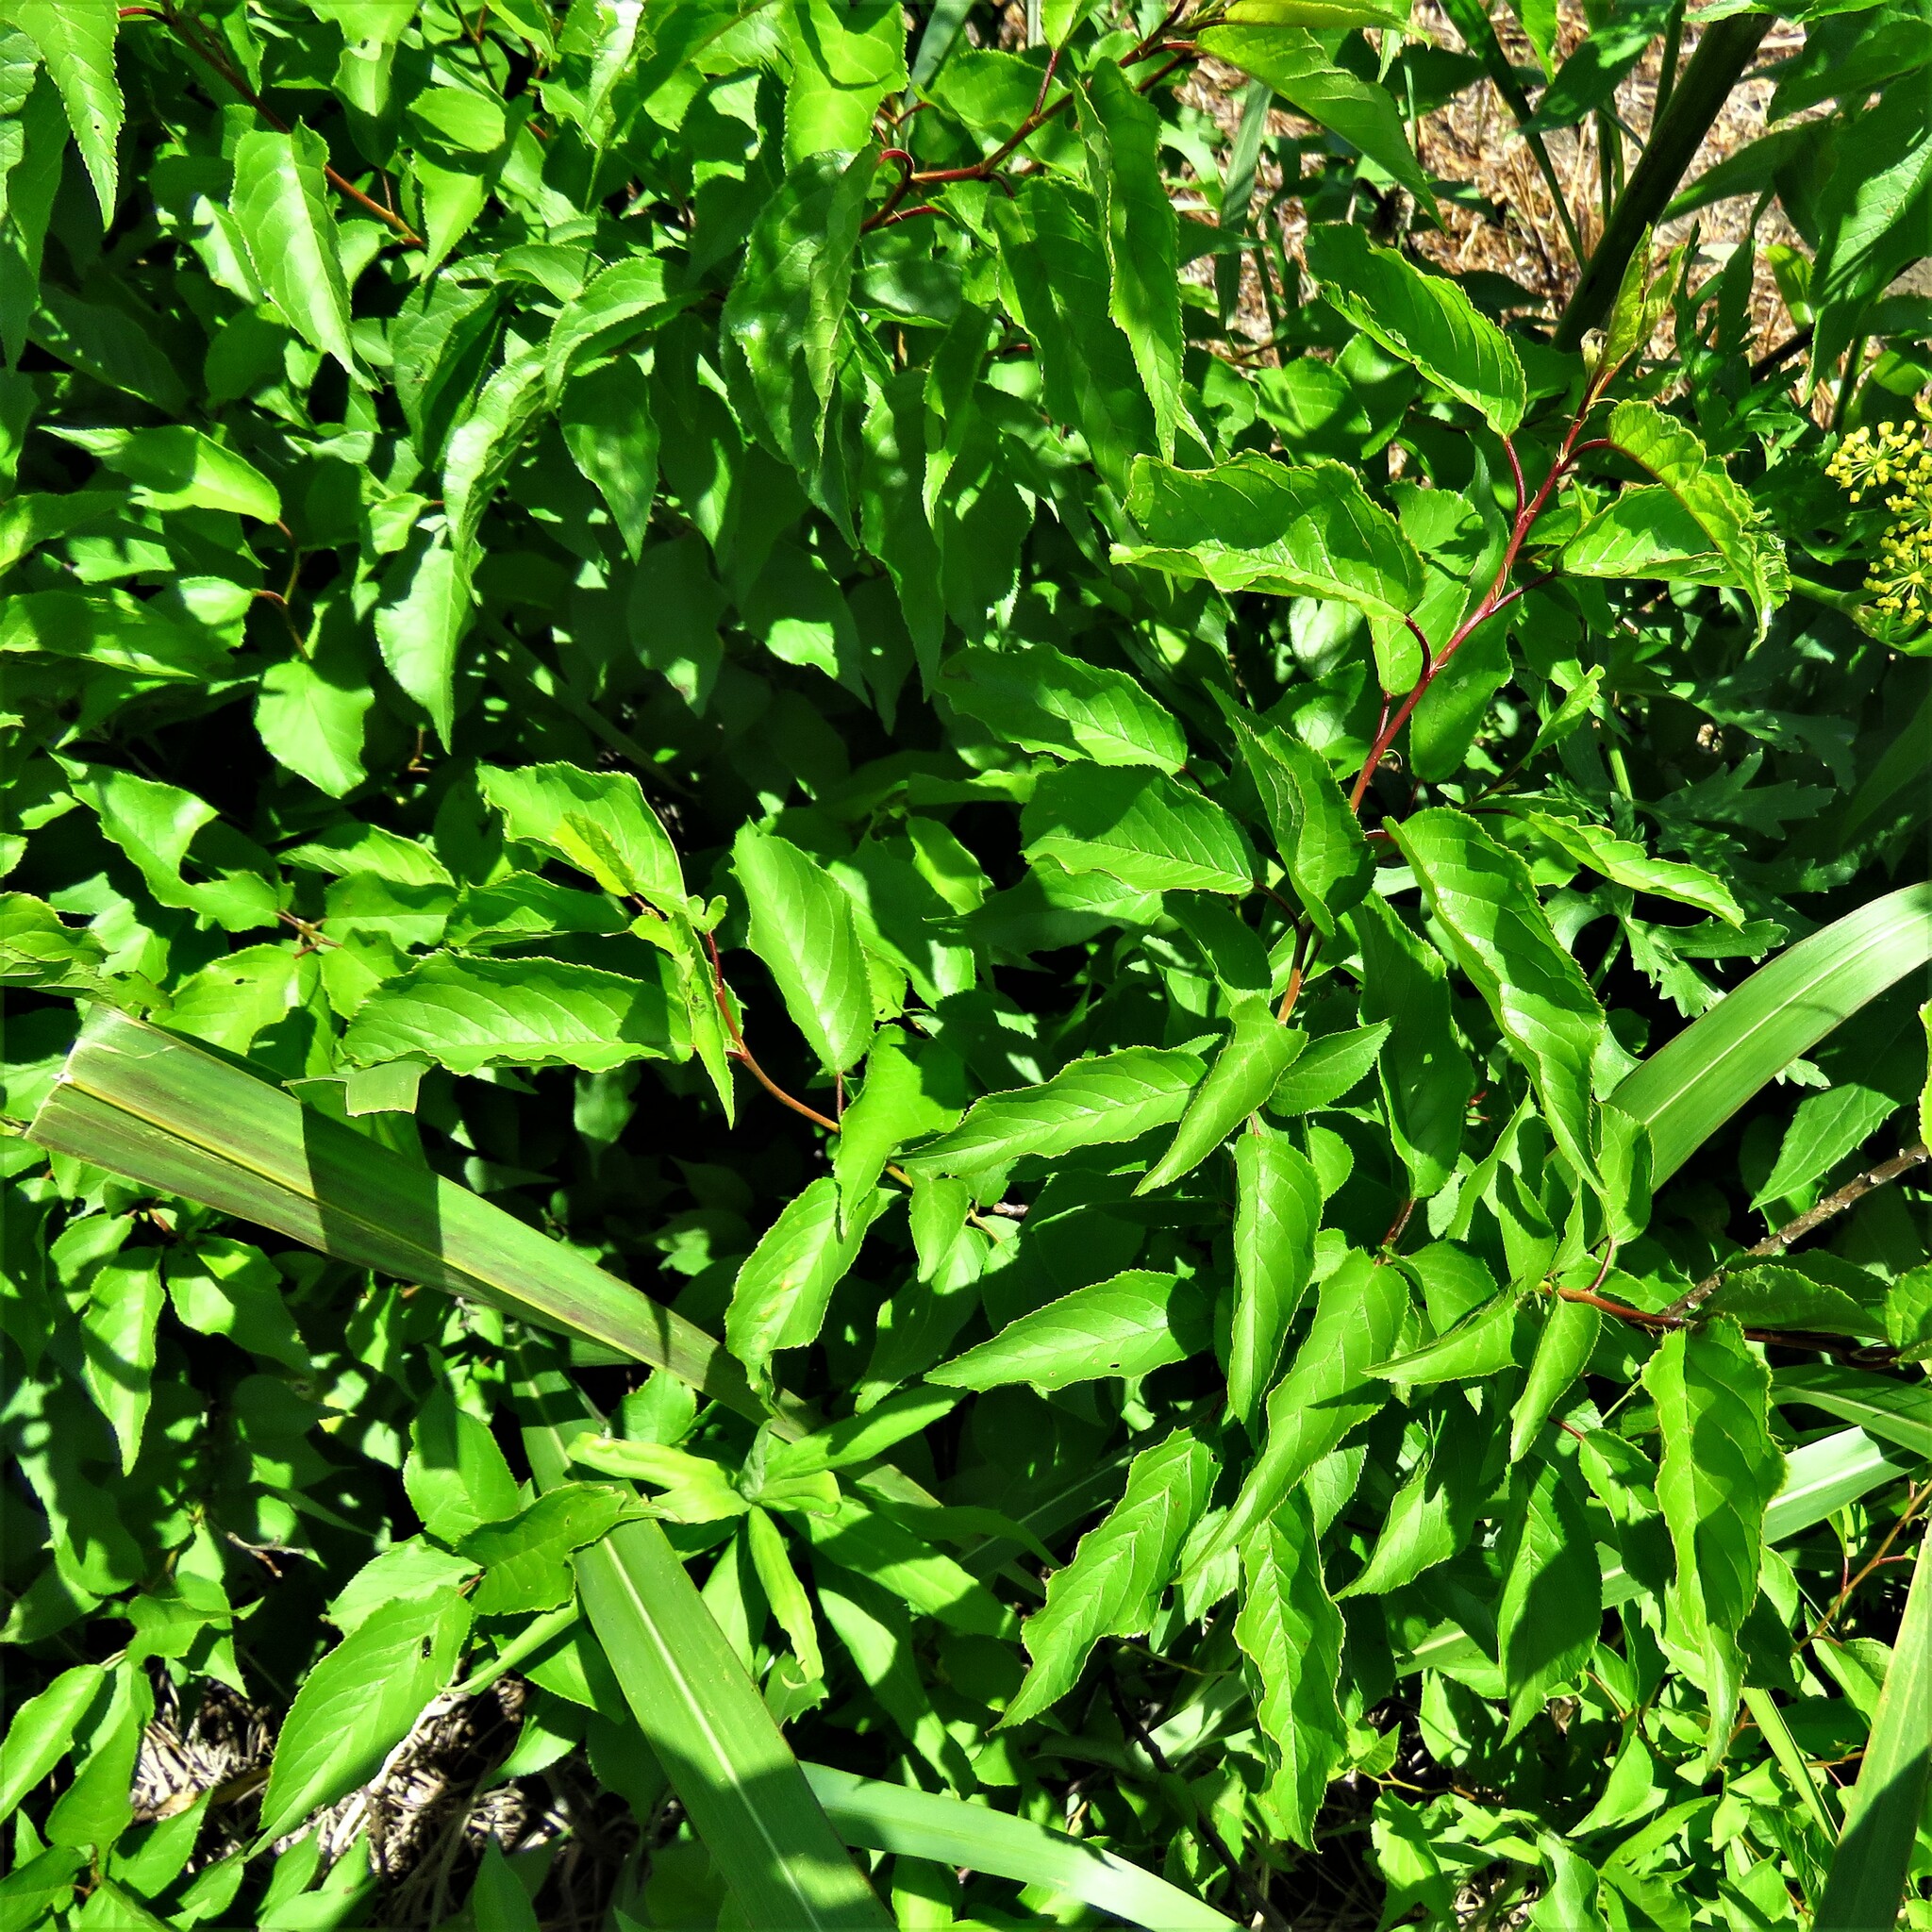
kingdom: Plantae
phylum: Tracheophyta
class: Magnoliopsida
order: Rosales
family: Rosaceae
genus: Prunus
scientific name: Prunus angustifolia
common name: Cherokee plum
